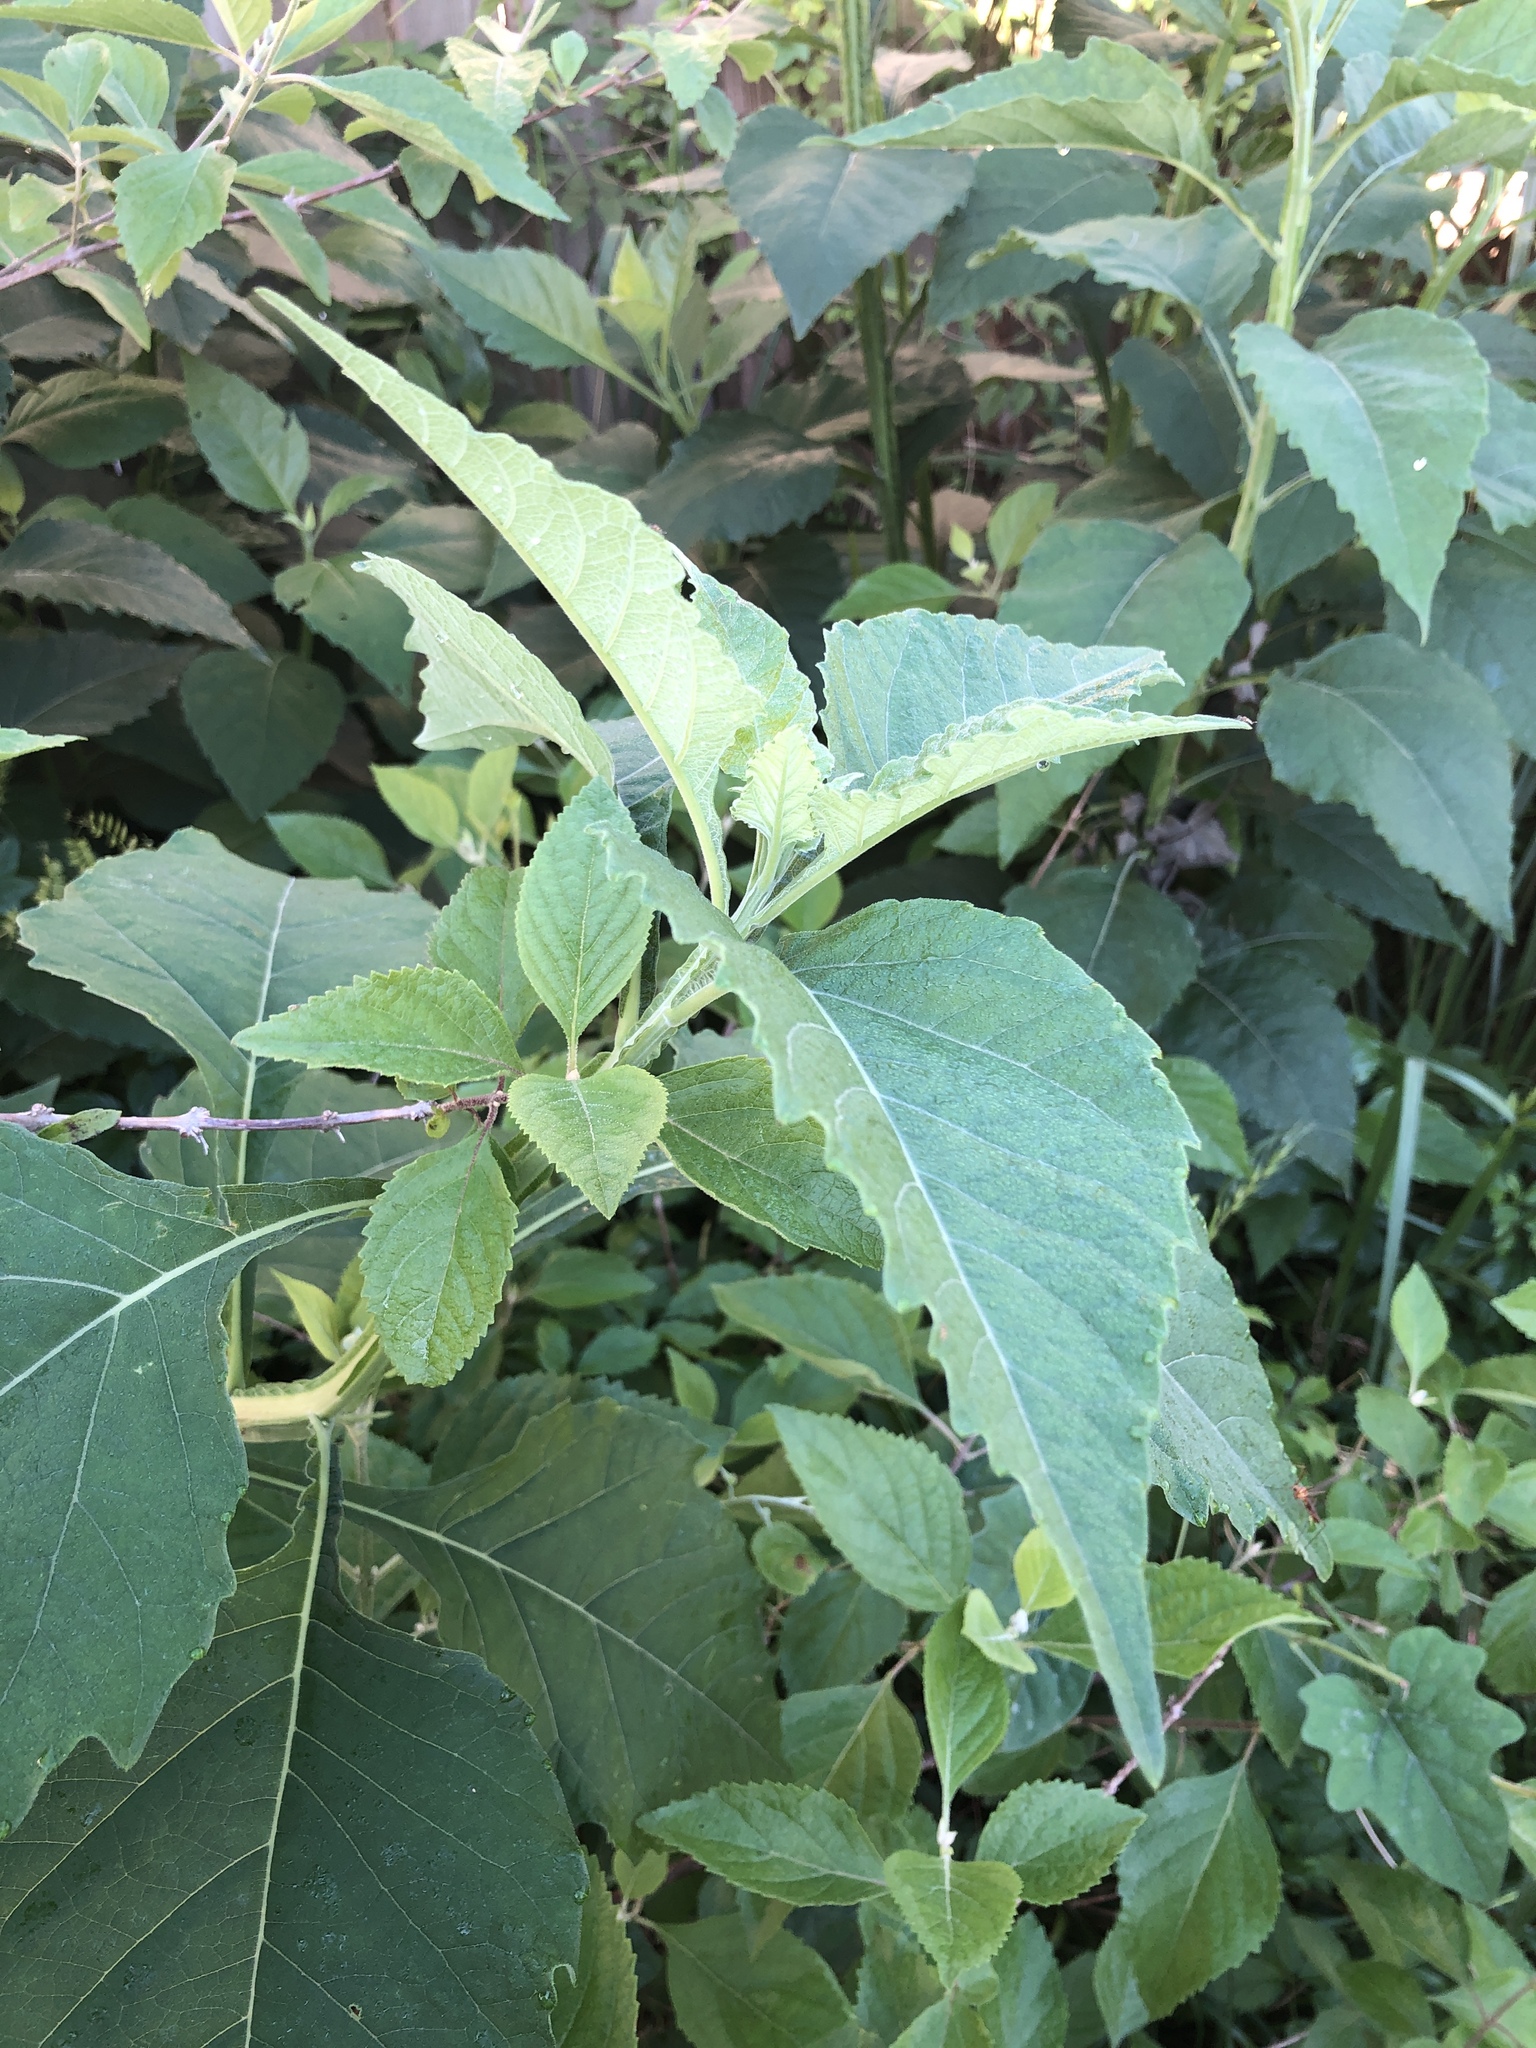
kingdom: Plantae
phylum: Tracheophyta
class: Magnoliopsida
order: Asterales
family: Asteraceae
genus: Verbesina
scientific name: Verbesina virginica
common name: Frostweed
